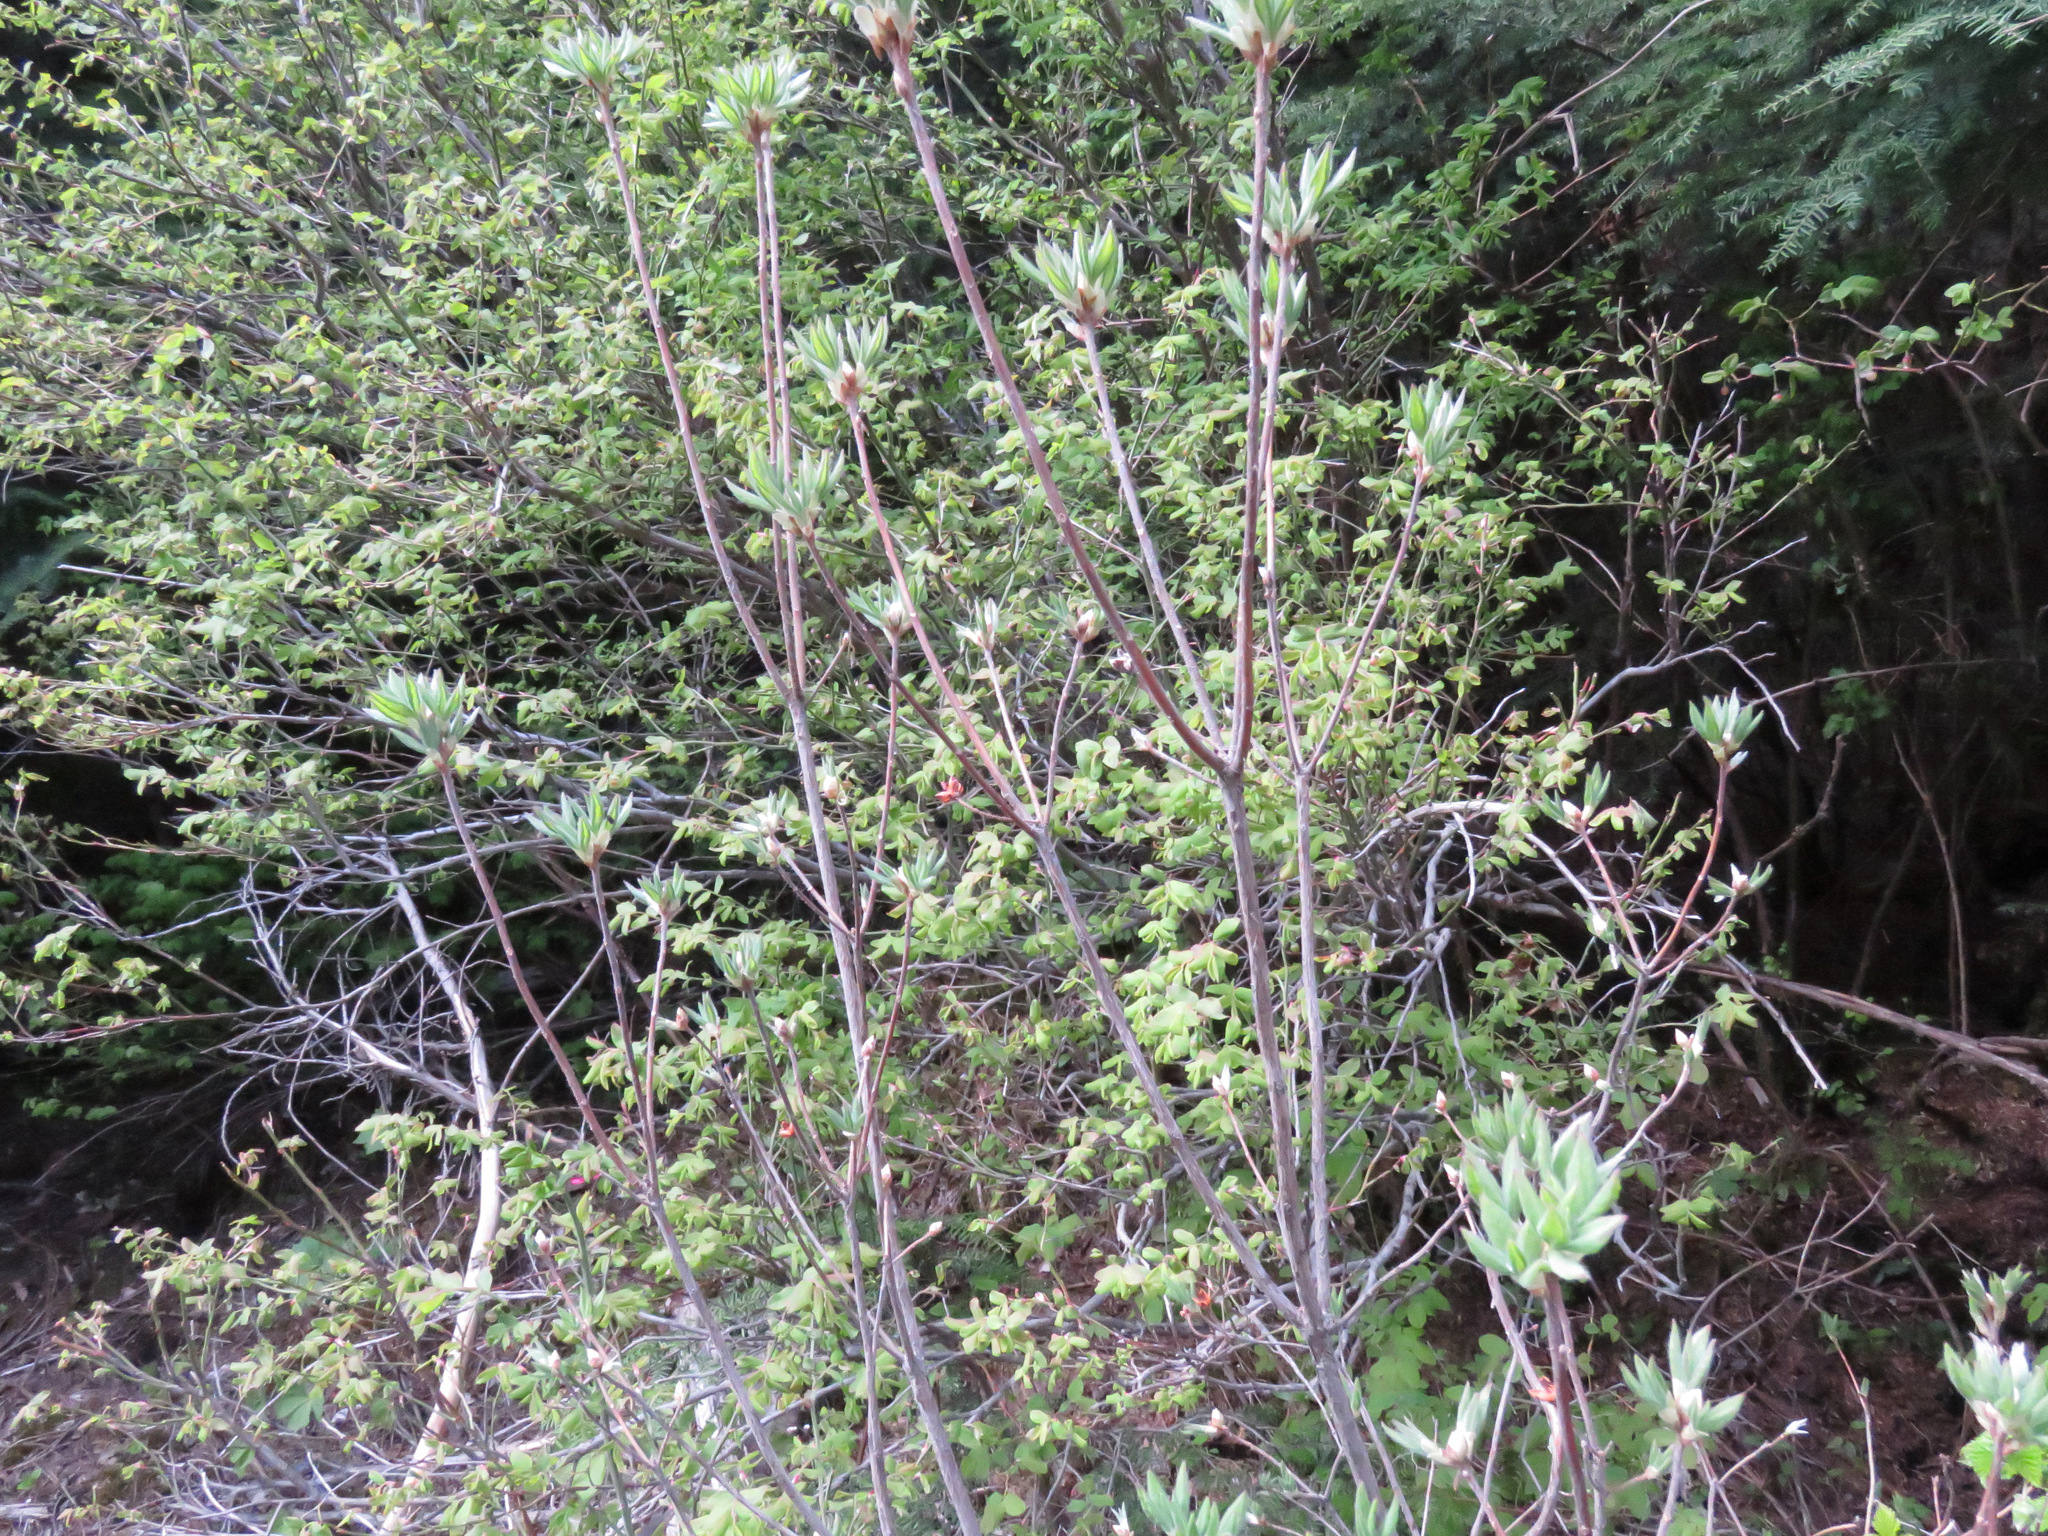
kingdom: Plantae
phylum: Tracheophyta
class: Magnoliopsida
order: Ericales
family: Ericaceae
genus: Rhododendron
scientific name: Rhododendron menziesii
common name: Pacific menziesia
